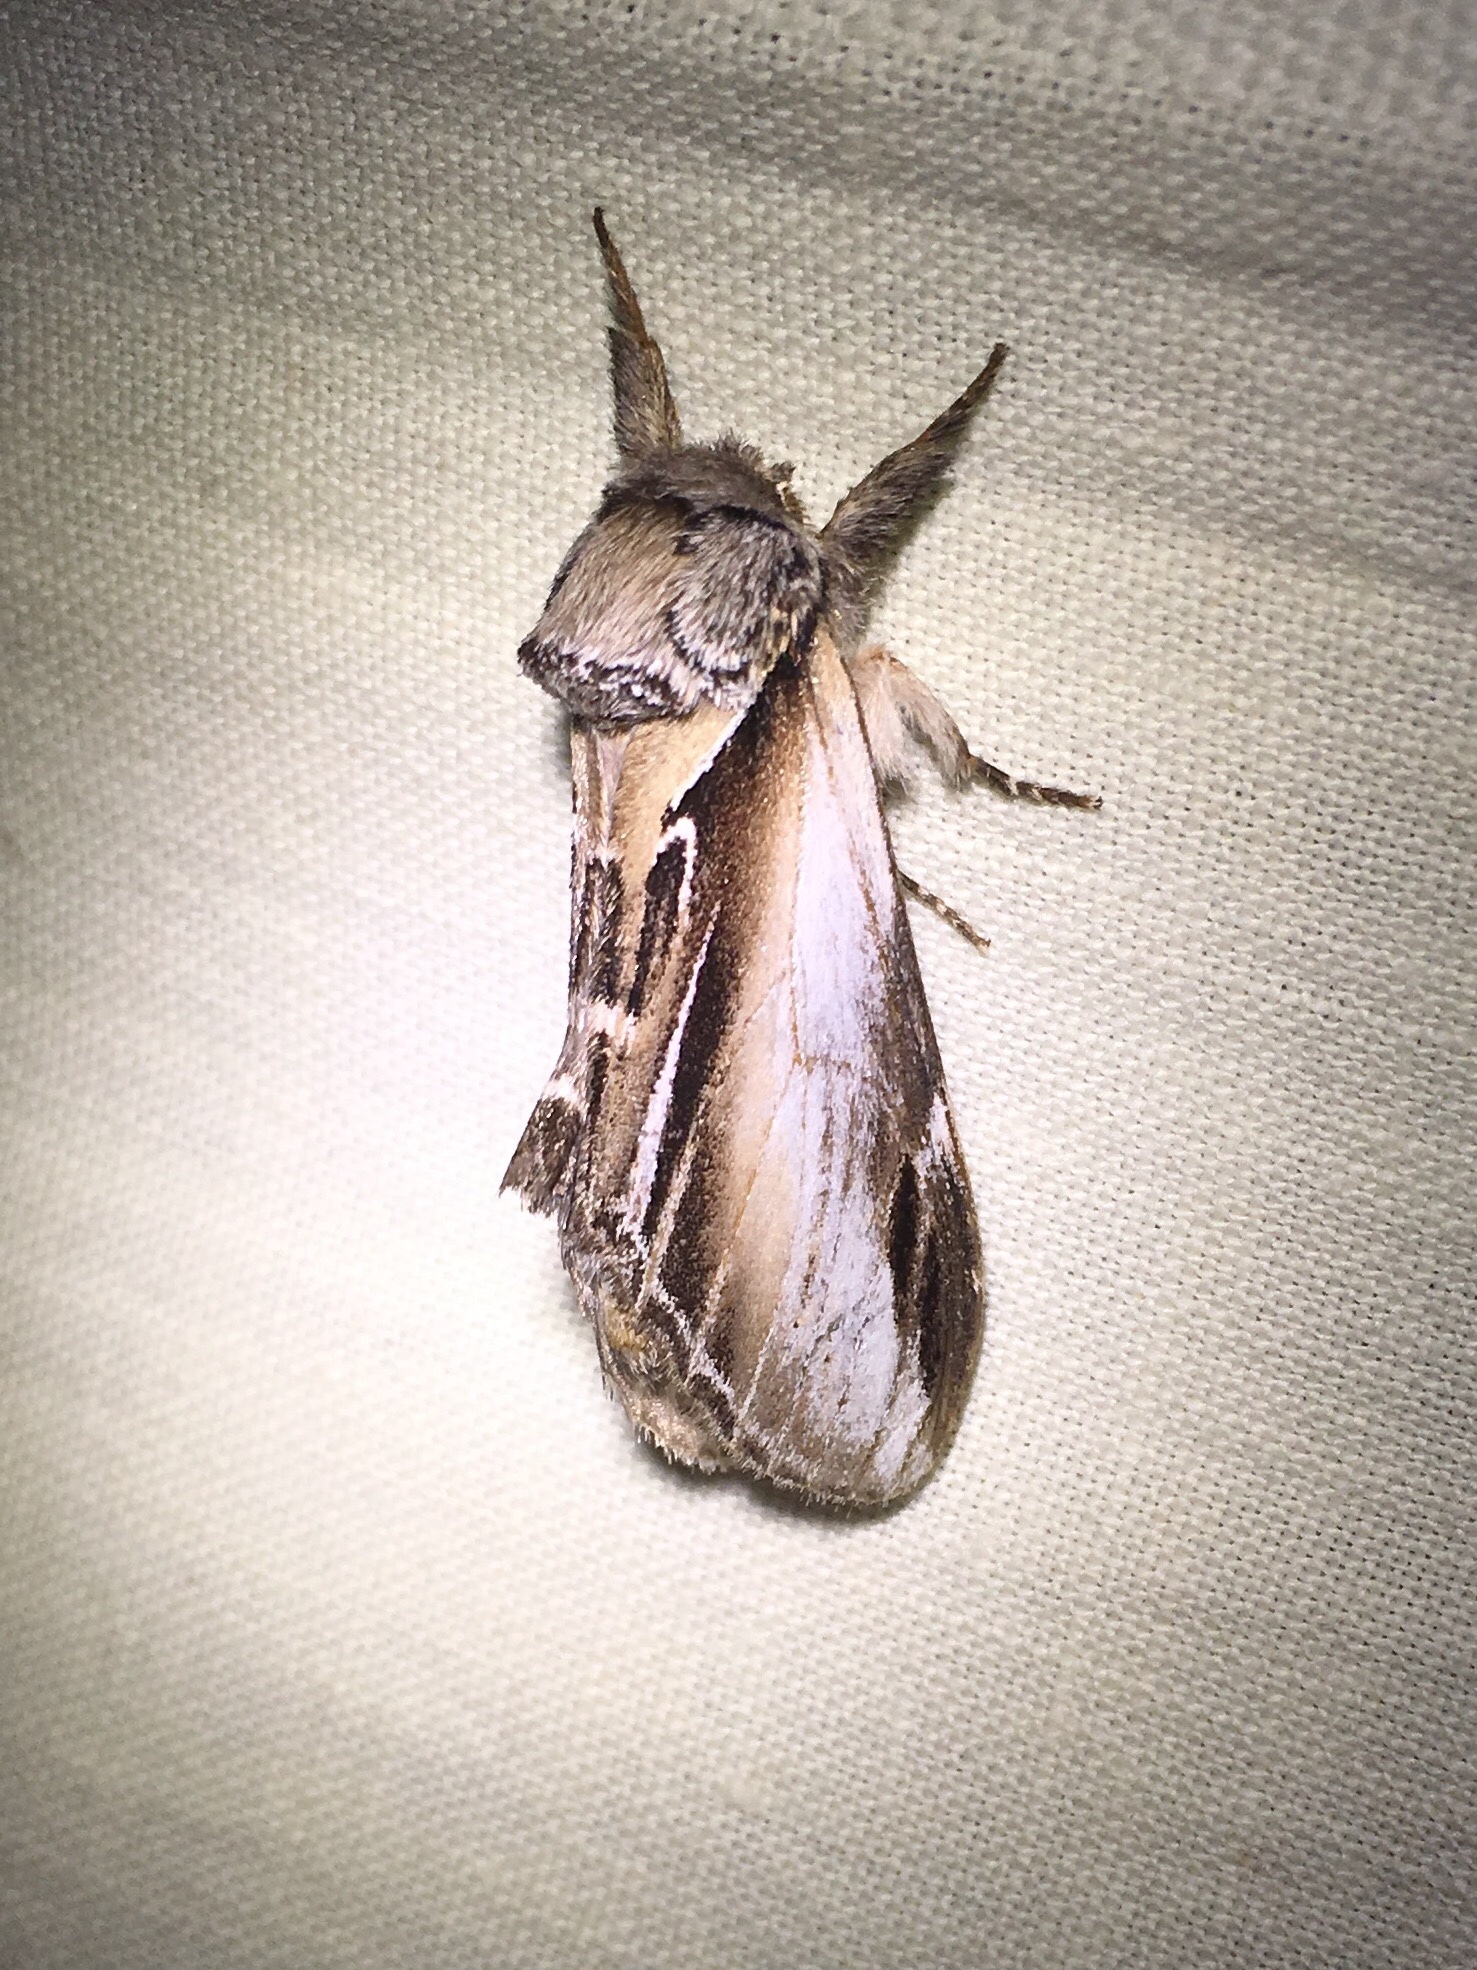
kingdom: Animalia
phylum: Arthropoda
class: Insecta
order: Lepidoptera
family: Notodontidae
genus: Pheosia
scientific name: Pheosia rimosa
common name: Black-rimmed prominent
